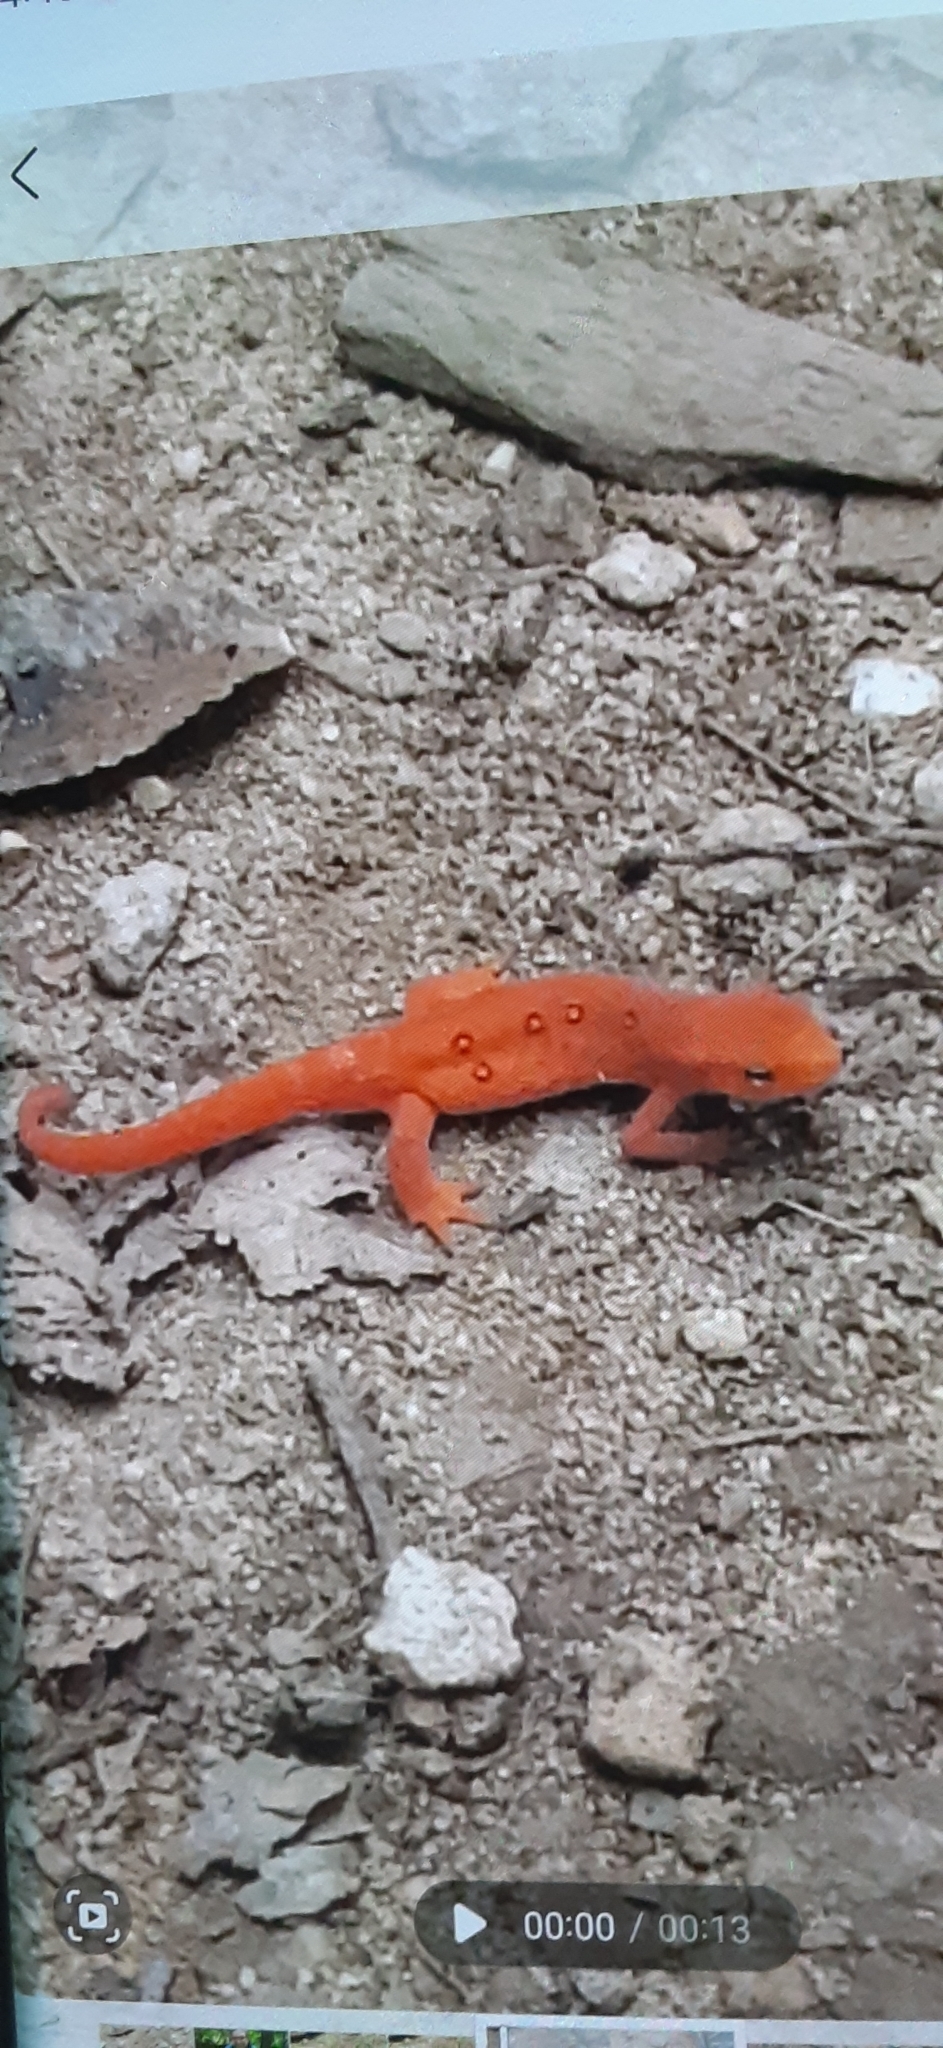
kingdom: Animalia
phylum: Chordata
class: Amphibia
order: Caudata
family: Salamandridae
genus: Notophthalmus
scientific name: Notophthalmus viridescens
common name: Eastern newt
